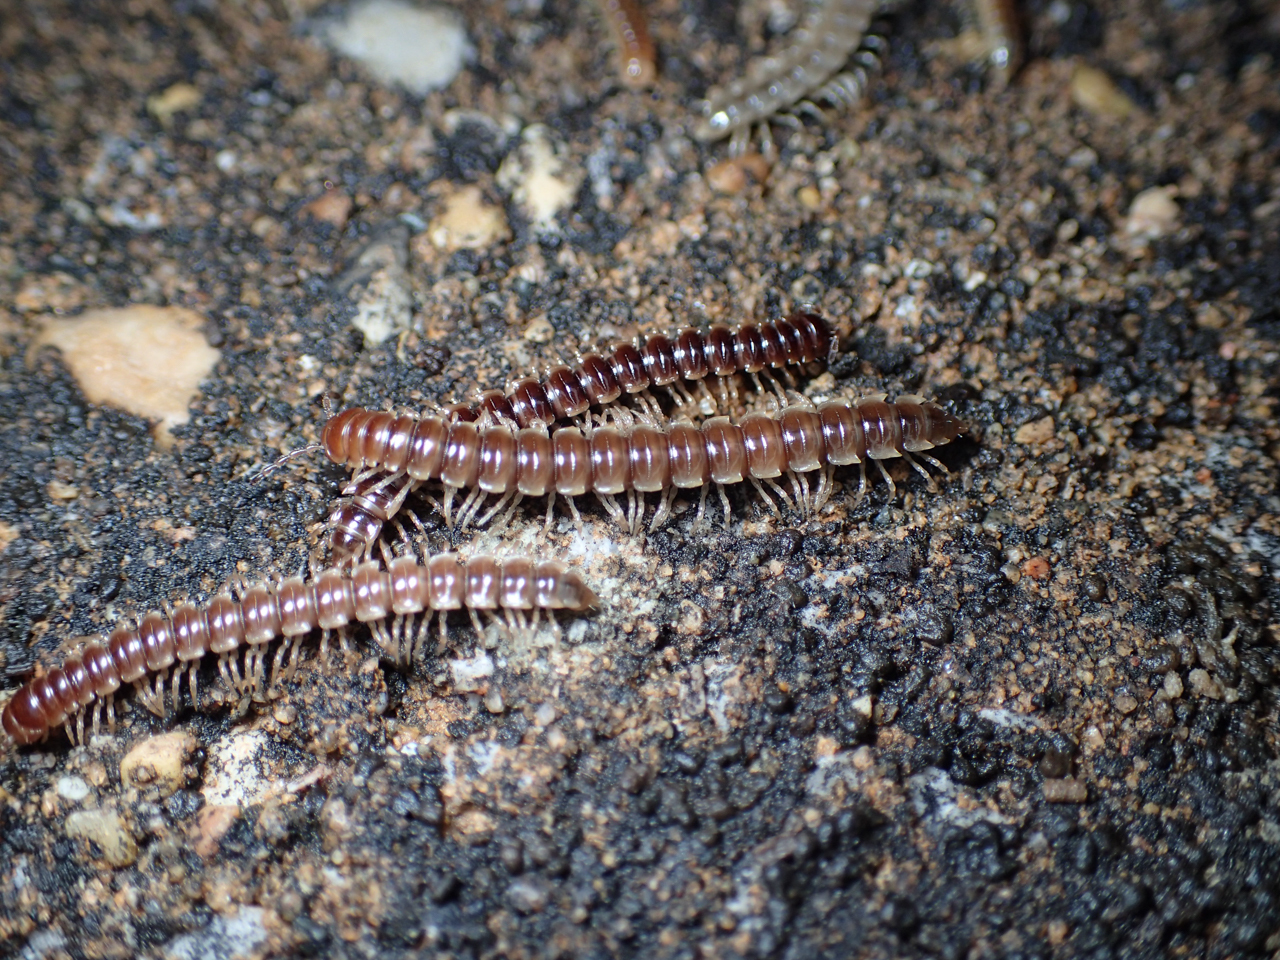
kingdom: Animalia
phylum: Arthropoda
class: Diplopoda
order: Polydesmida
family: Paradoxosomatidae
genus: Oxidus
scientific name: Oxidus gracilis
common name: Greenhouse millipede
